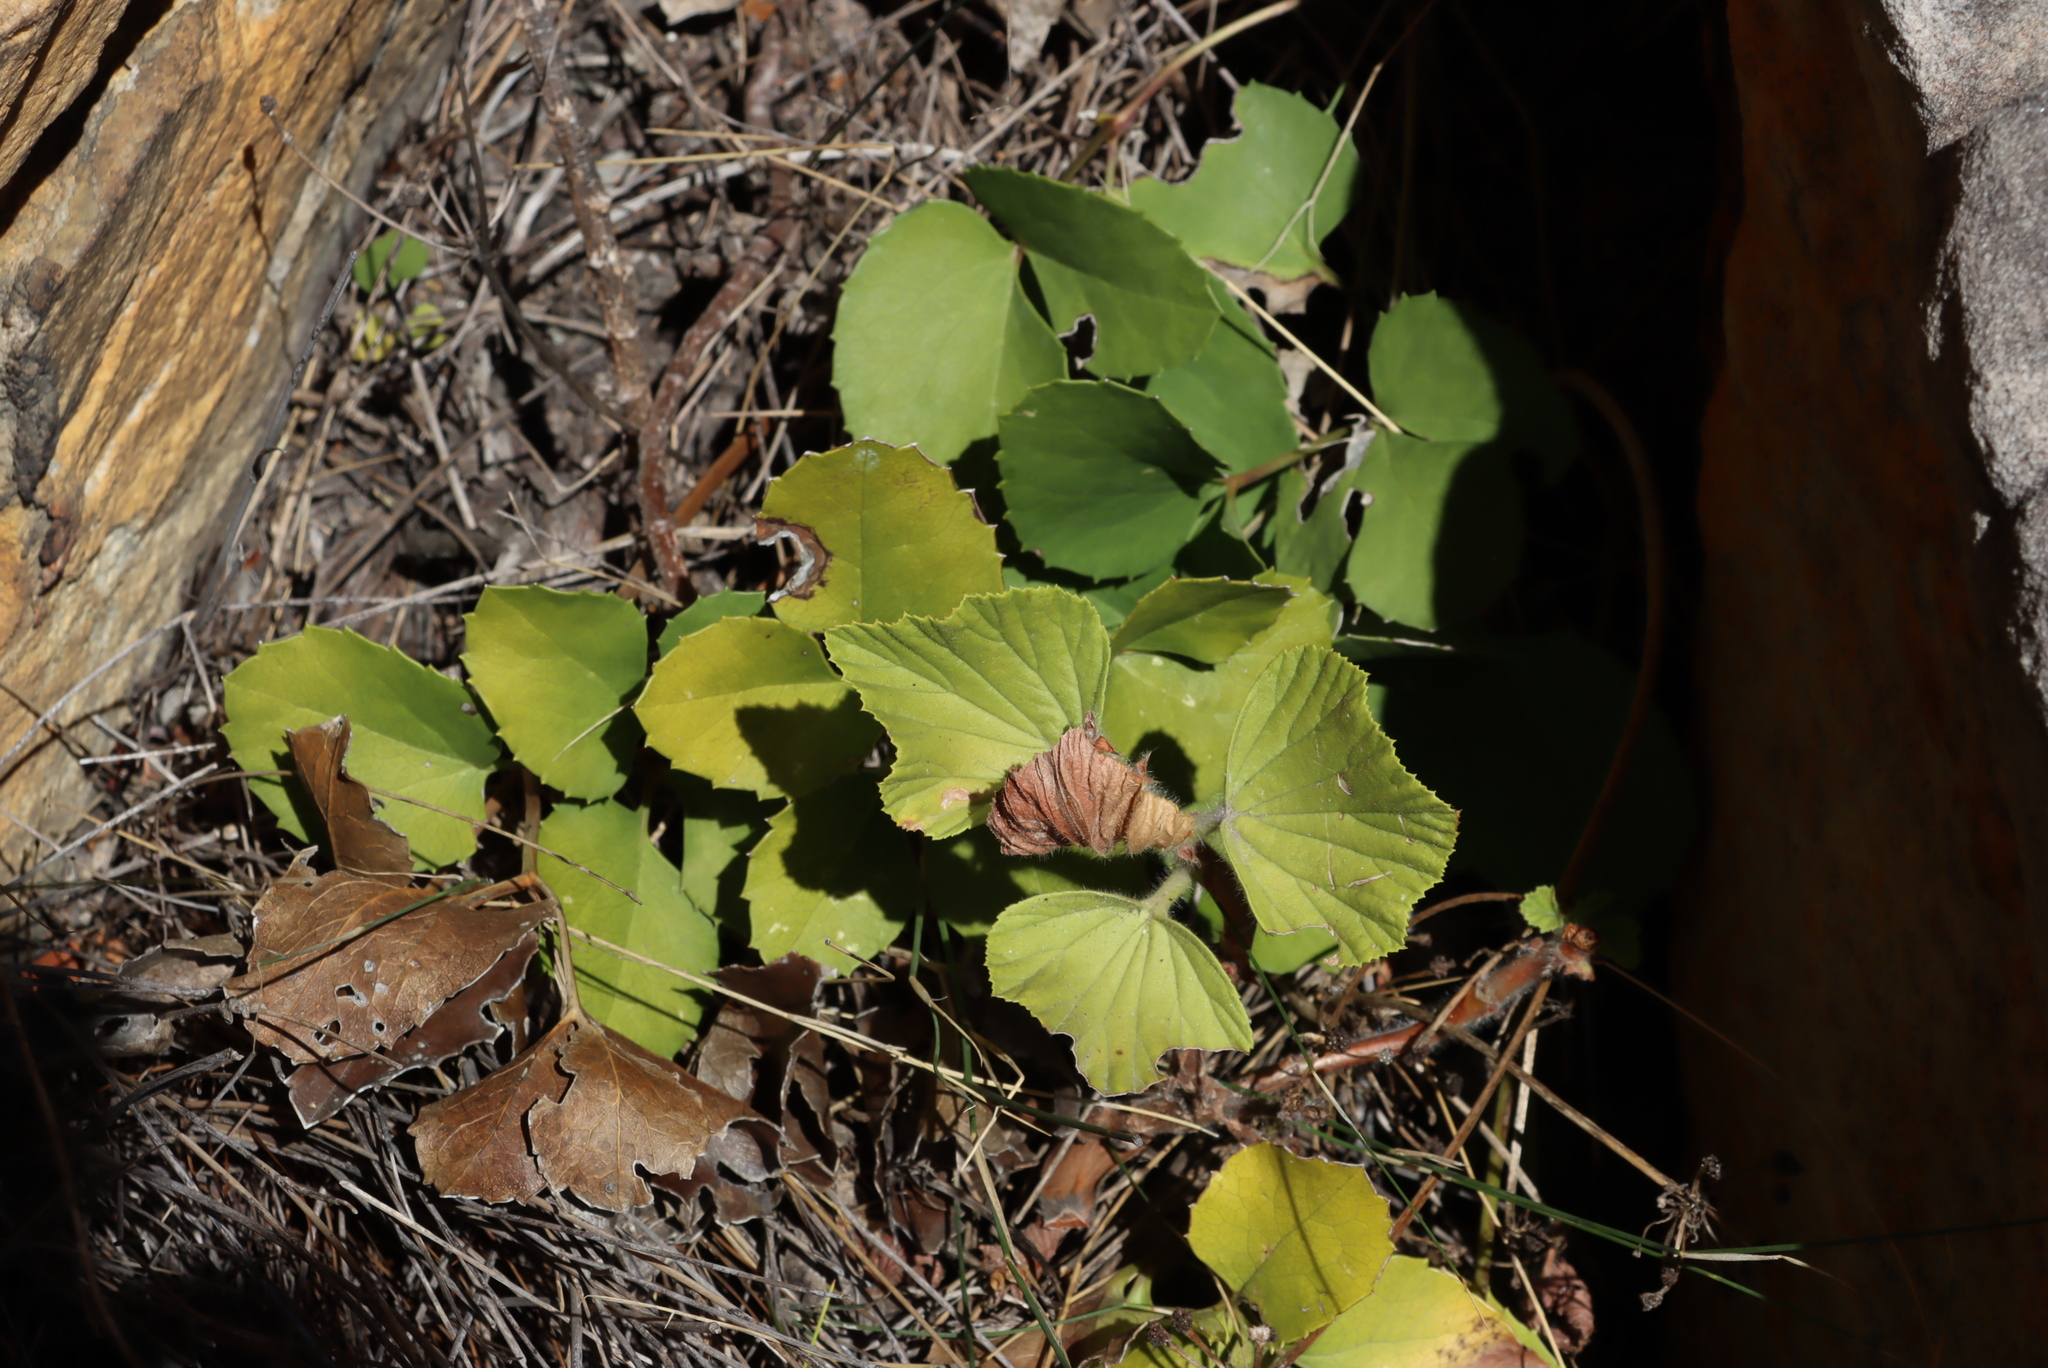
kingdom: Plantae
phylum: Tracheophyta
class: Magnoliopsida
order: Ranunculales
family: Ranunculaceae
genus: Knowltonia
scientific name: Knowltonia vesicatoria
